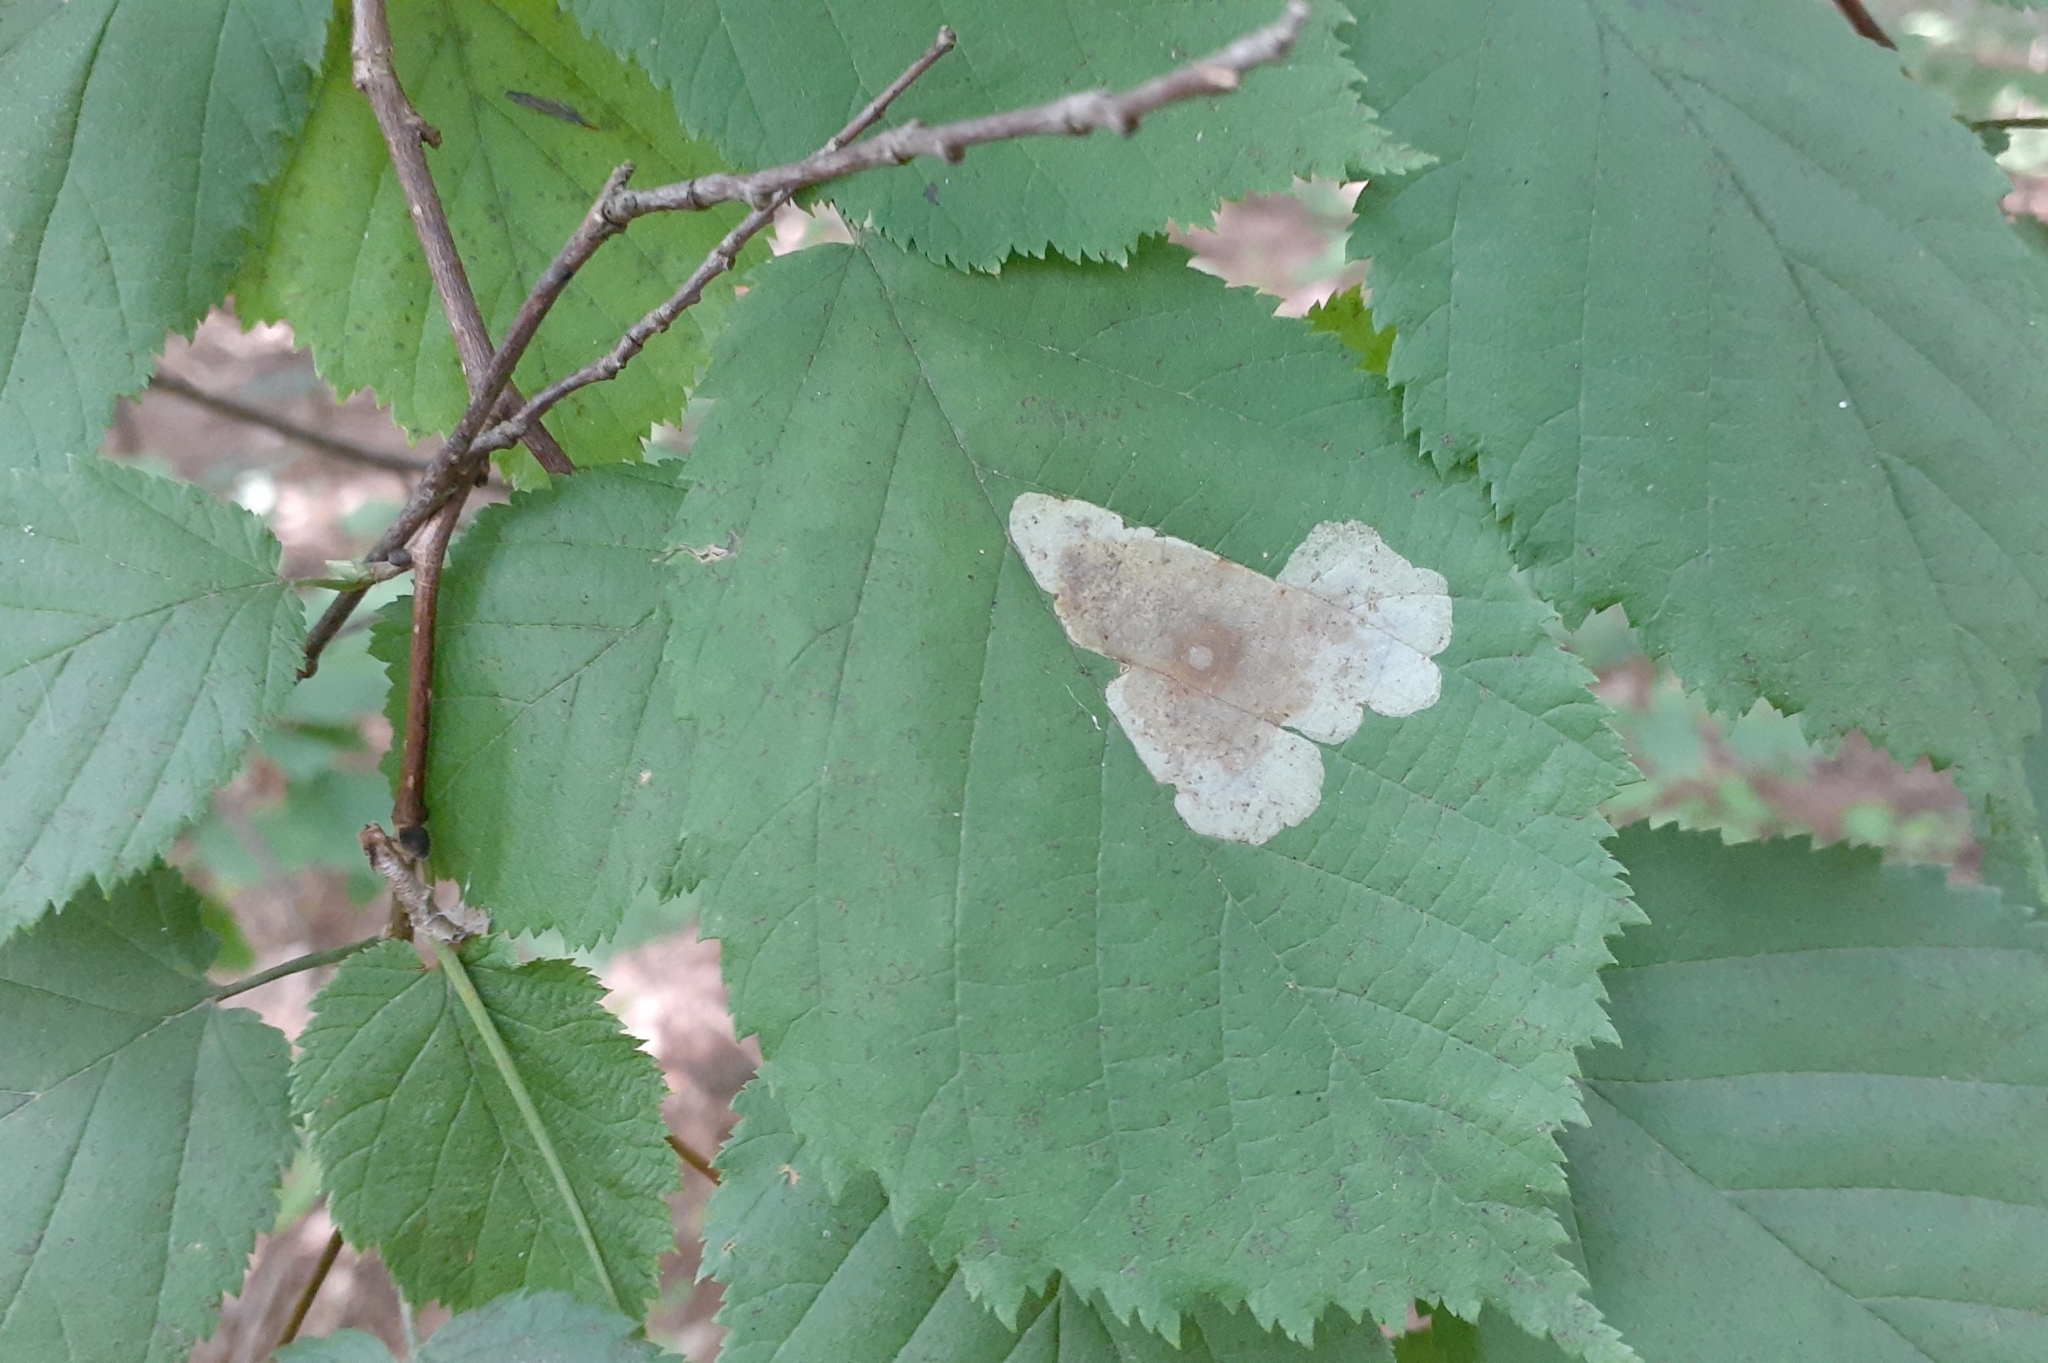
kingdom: Animalia
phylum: Arthropoda
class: Insecta
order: Lepidoptera
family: Gracillariidae
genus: Cameraria
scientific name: Cameraria corylisella
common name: Hazel blotchminer
